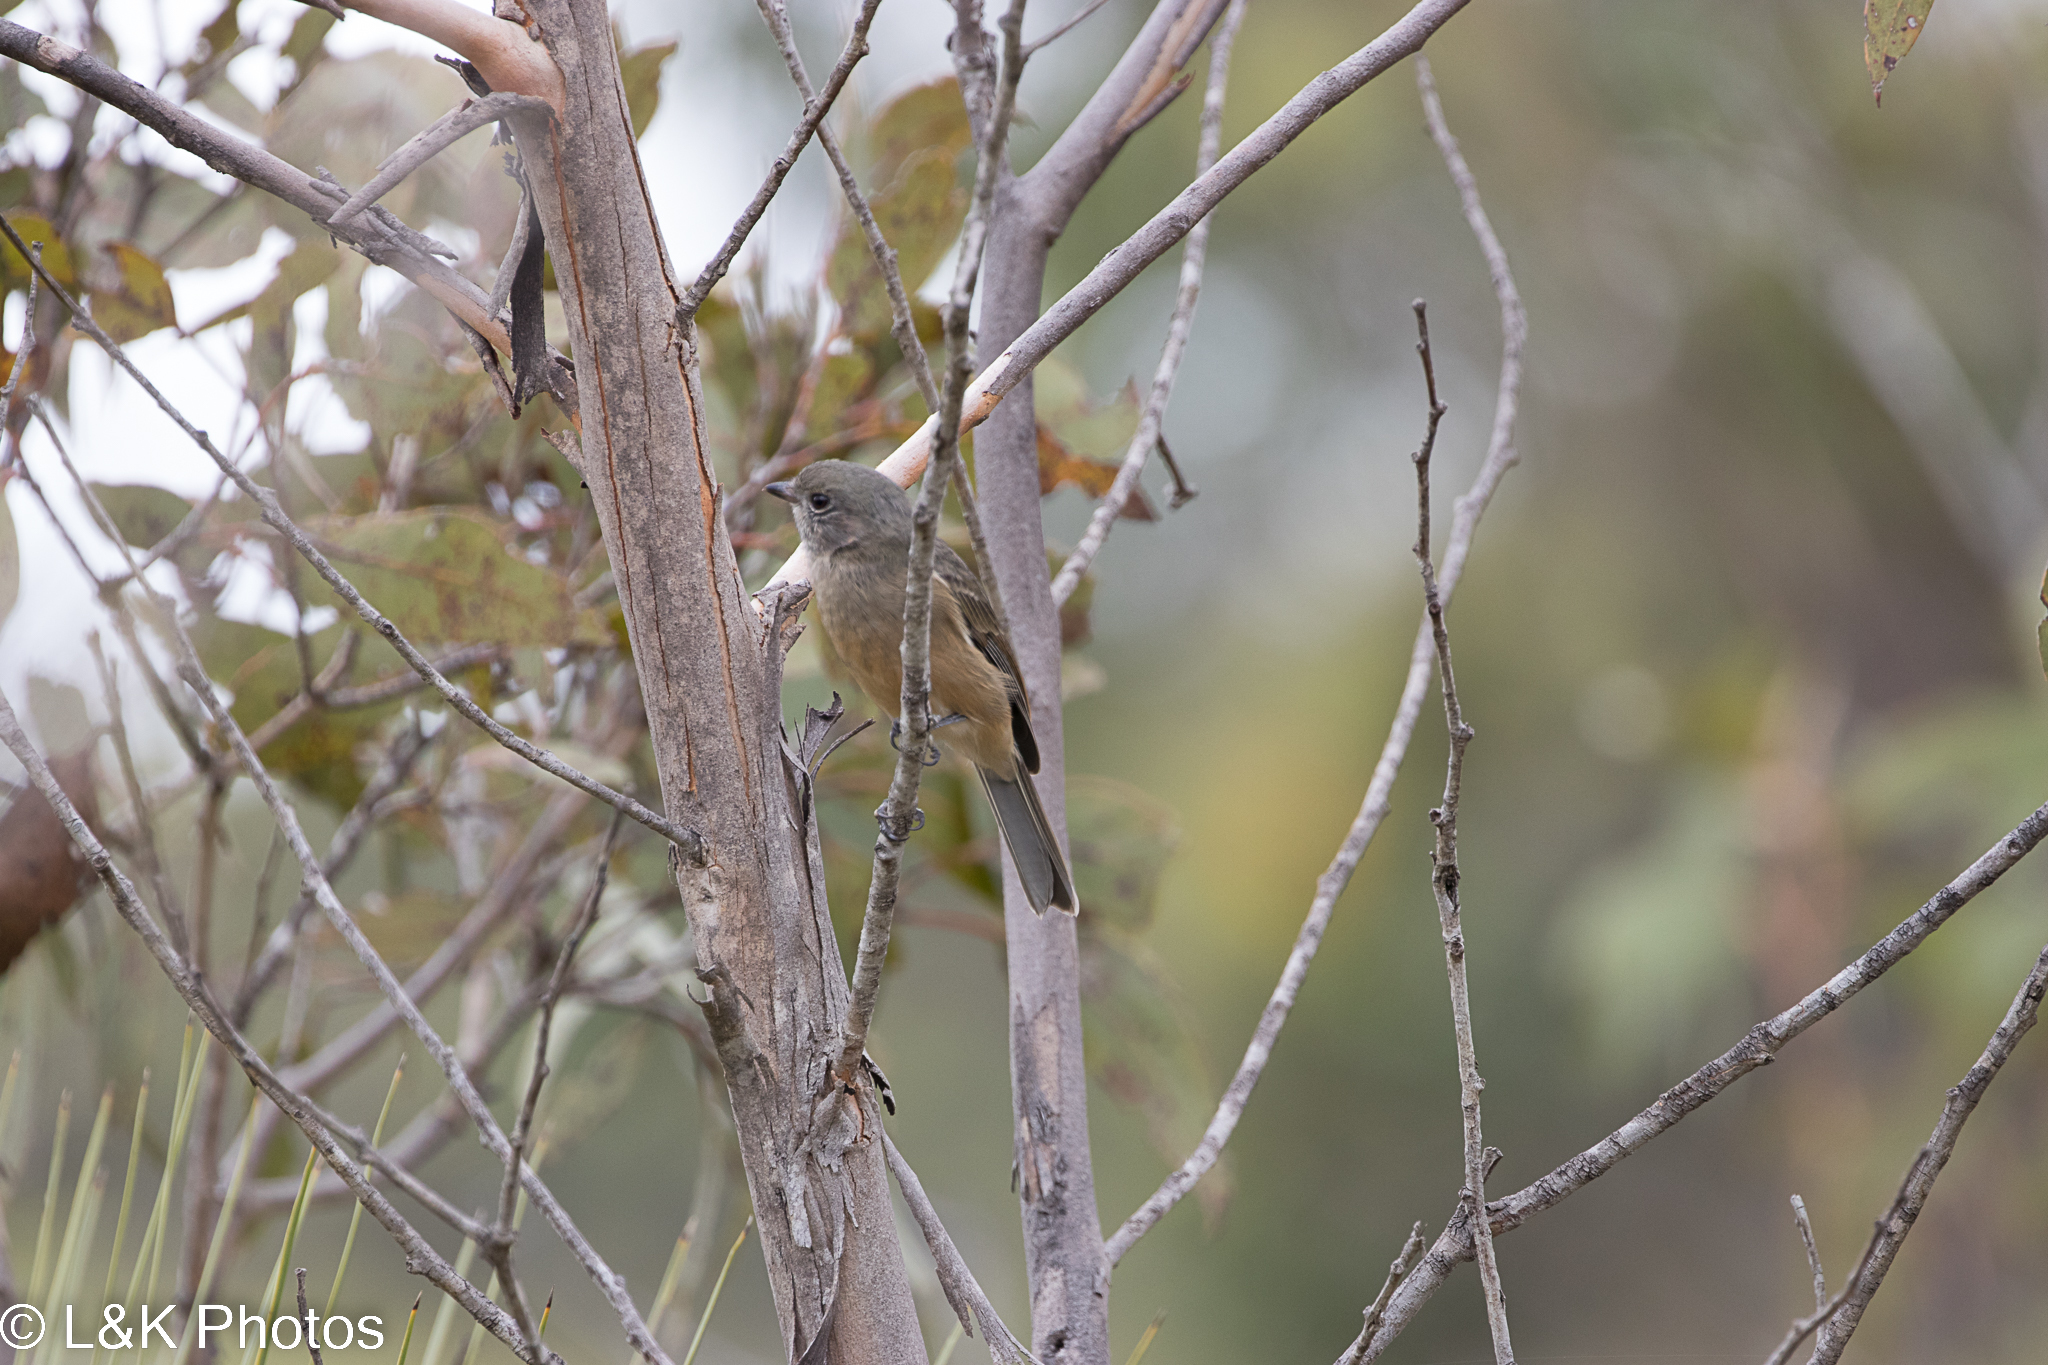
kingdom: Animalia
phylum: Chordata
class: Aves
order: Passeriformes
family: Pachycephalidae
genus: Pachycephala
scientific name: Pachycephala fuliginosa
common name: Western whistler
